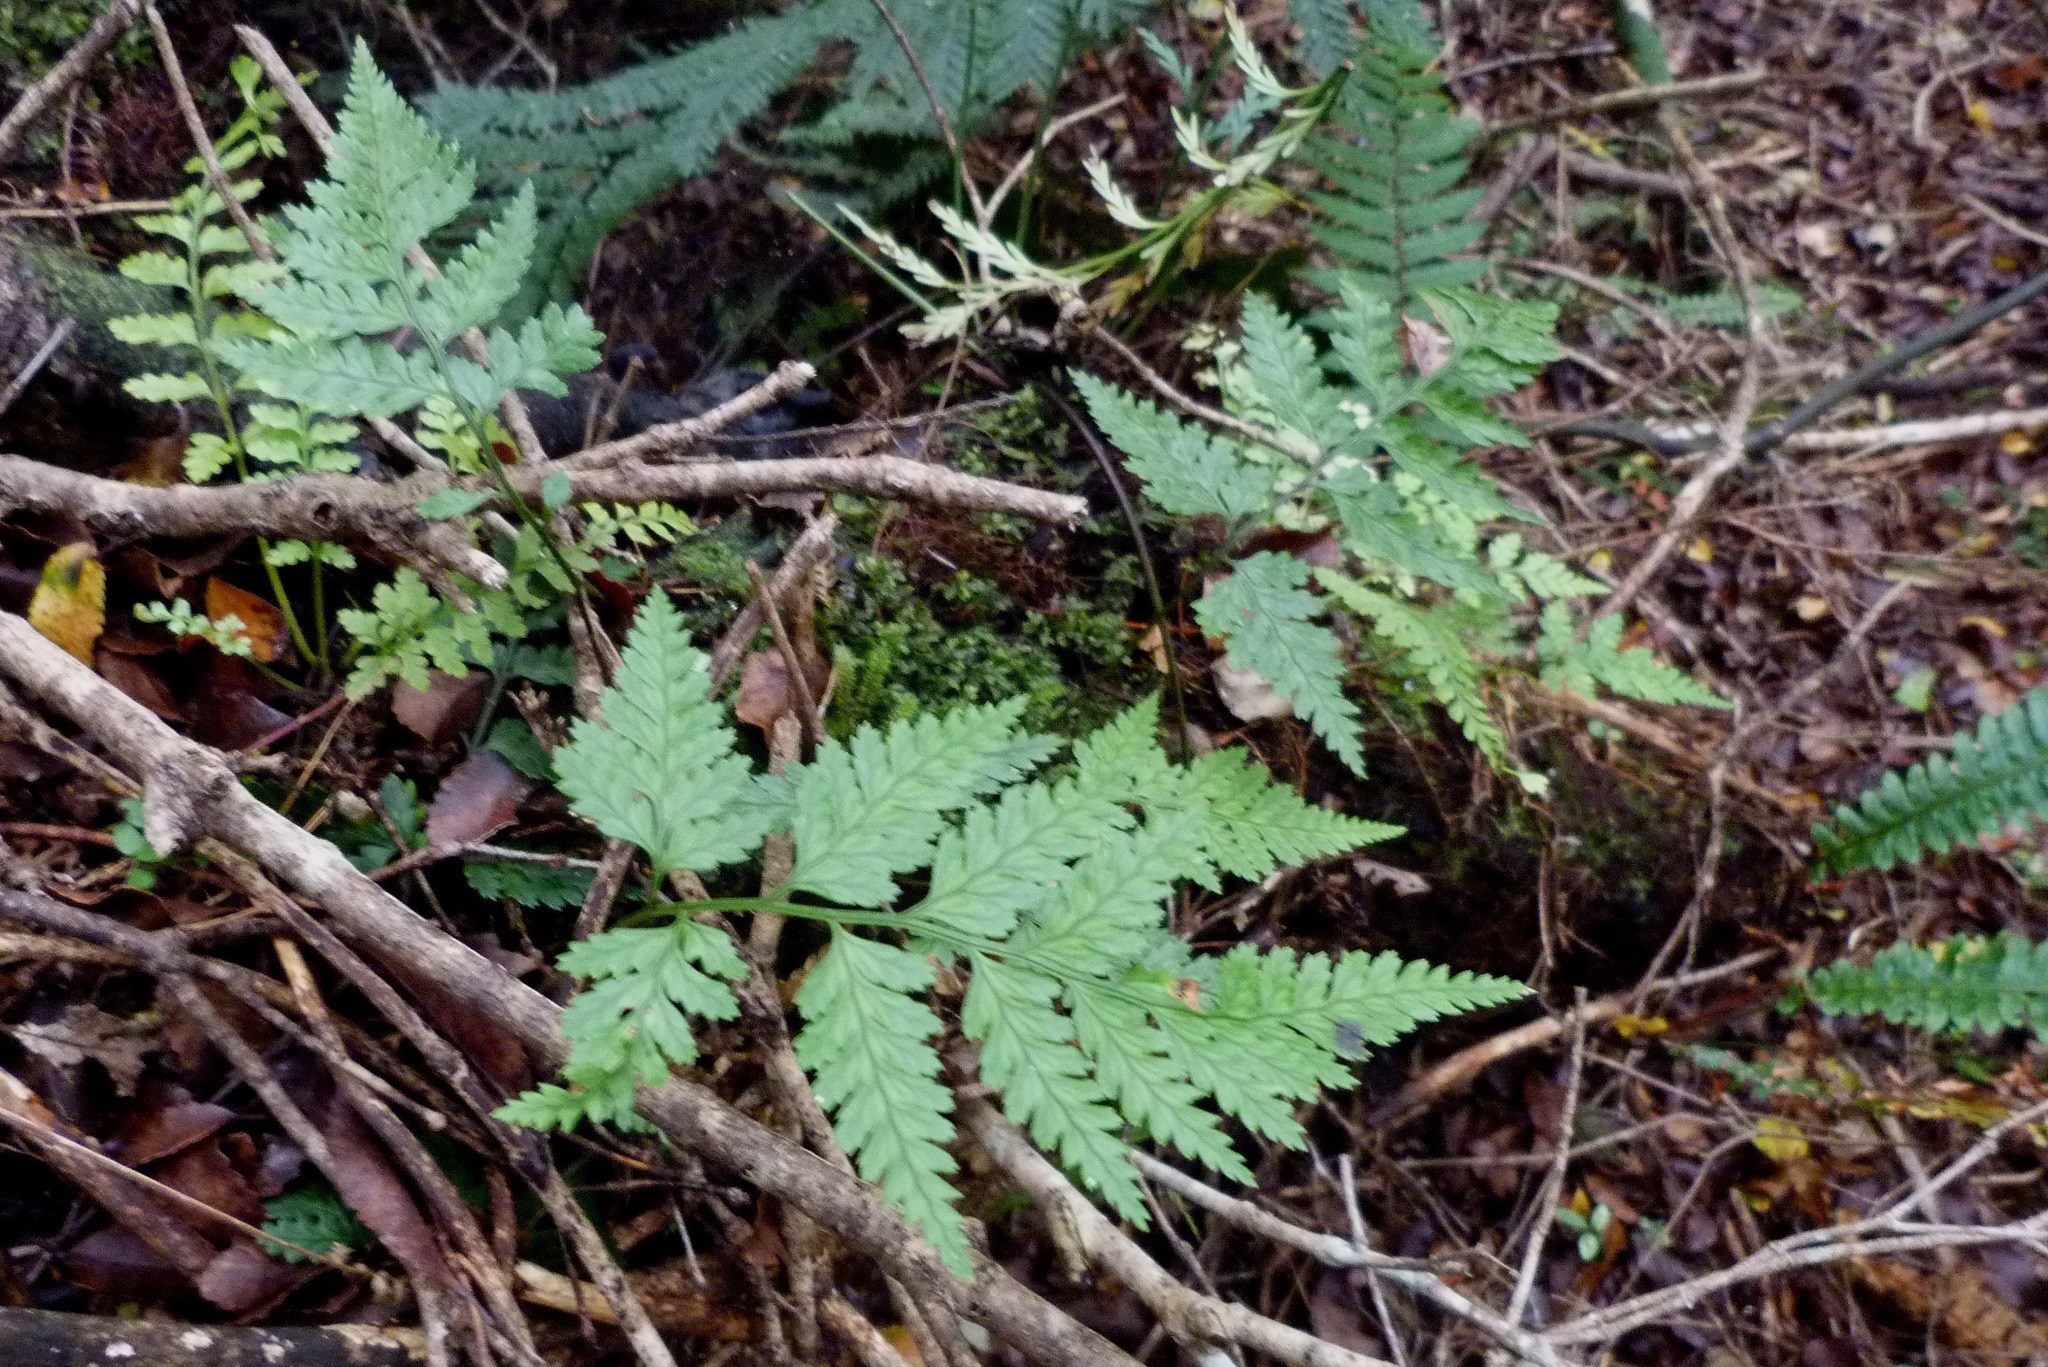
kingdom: Plantae
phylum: Tracheophyta
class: Polypodiopsida
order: Polypodiales
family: Dryopteridaceae
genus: Rumohra
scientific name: Rumohra adiantiformis
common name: Leather fern
